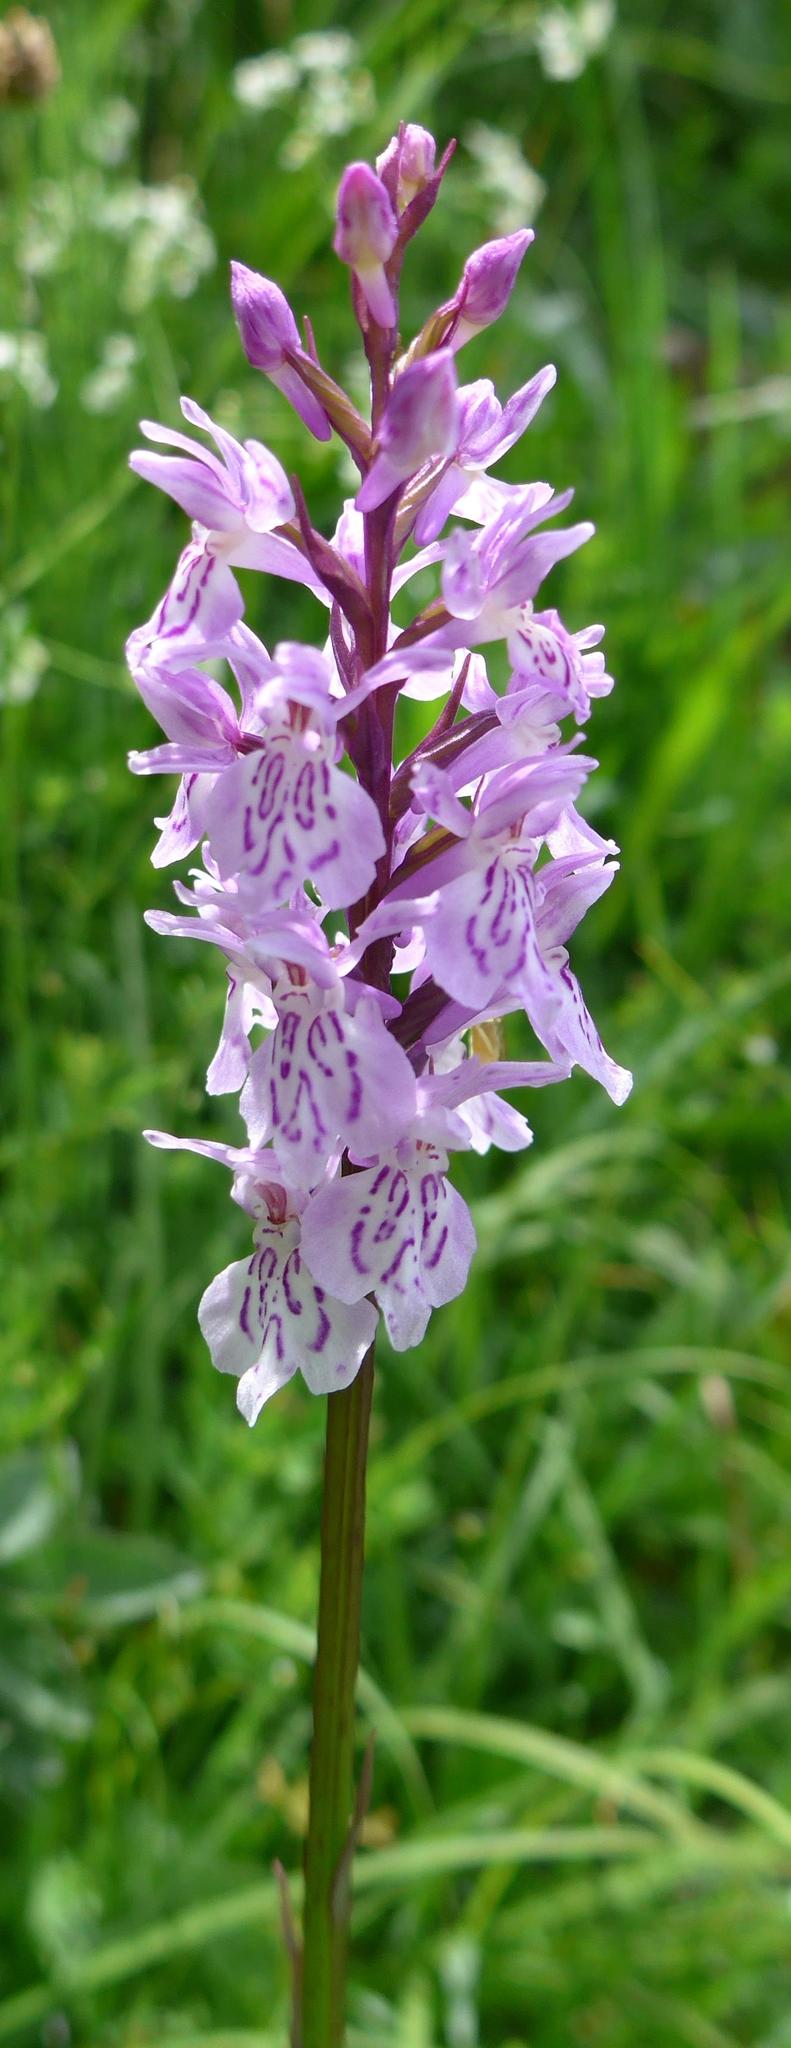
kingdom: Plantae
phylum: Tracheophyta
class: Liliopsida
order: Asparagales
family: Orchidaceae
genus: Dactylorhiza
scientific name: Dactylorhiza maculata
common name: Heath spotted-orchid
